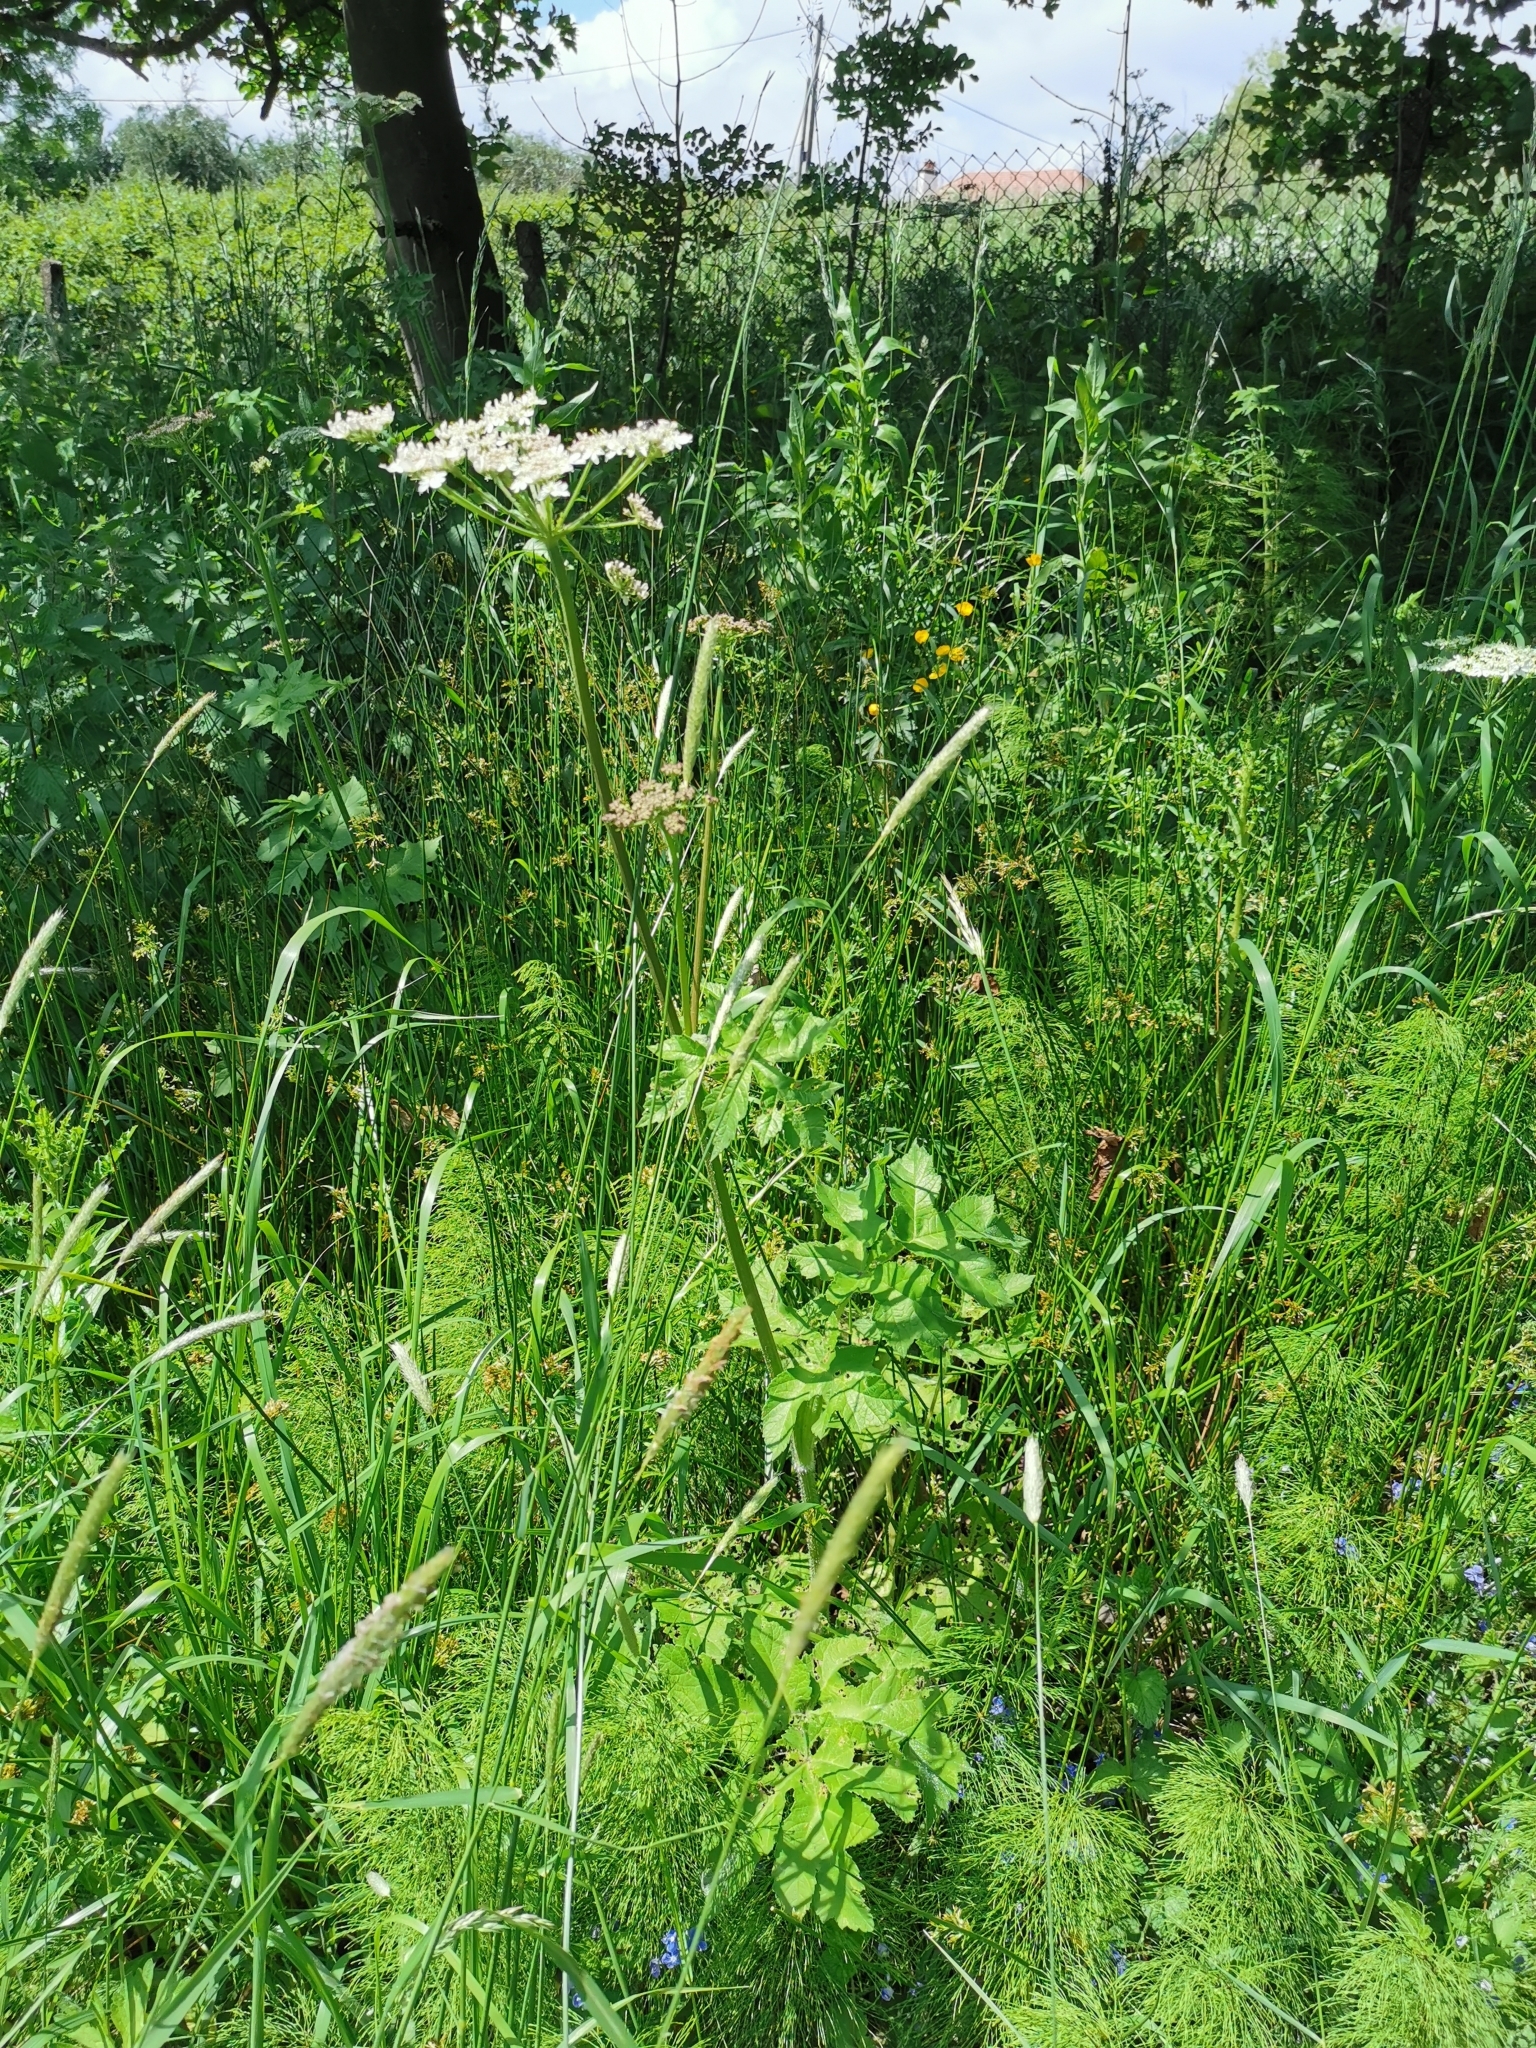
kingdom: Plantae
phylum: Tracheophyta
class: Magnoliopsida
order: Apiales
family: Apiaceae
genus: Heracleum
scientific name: Heracleum sphondylium
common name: Hogweed
